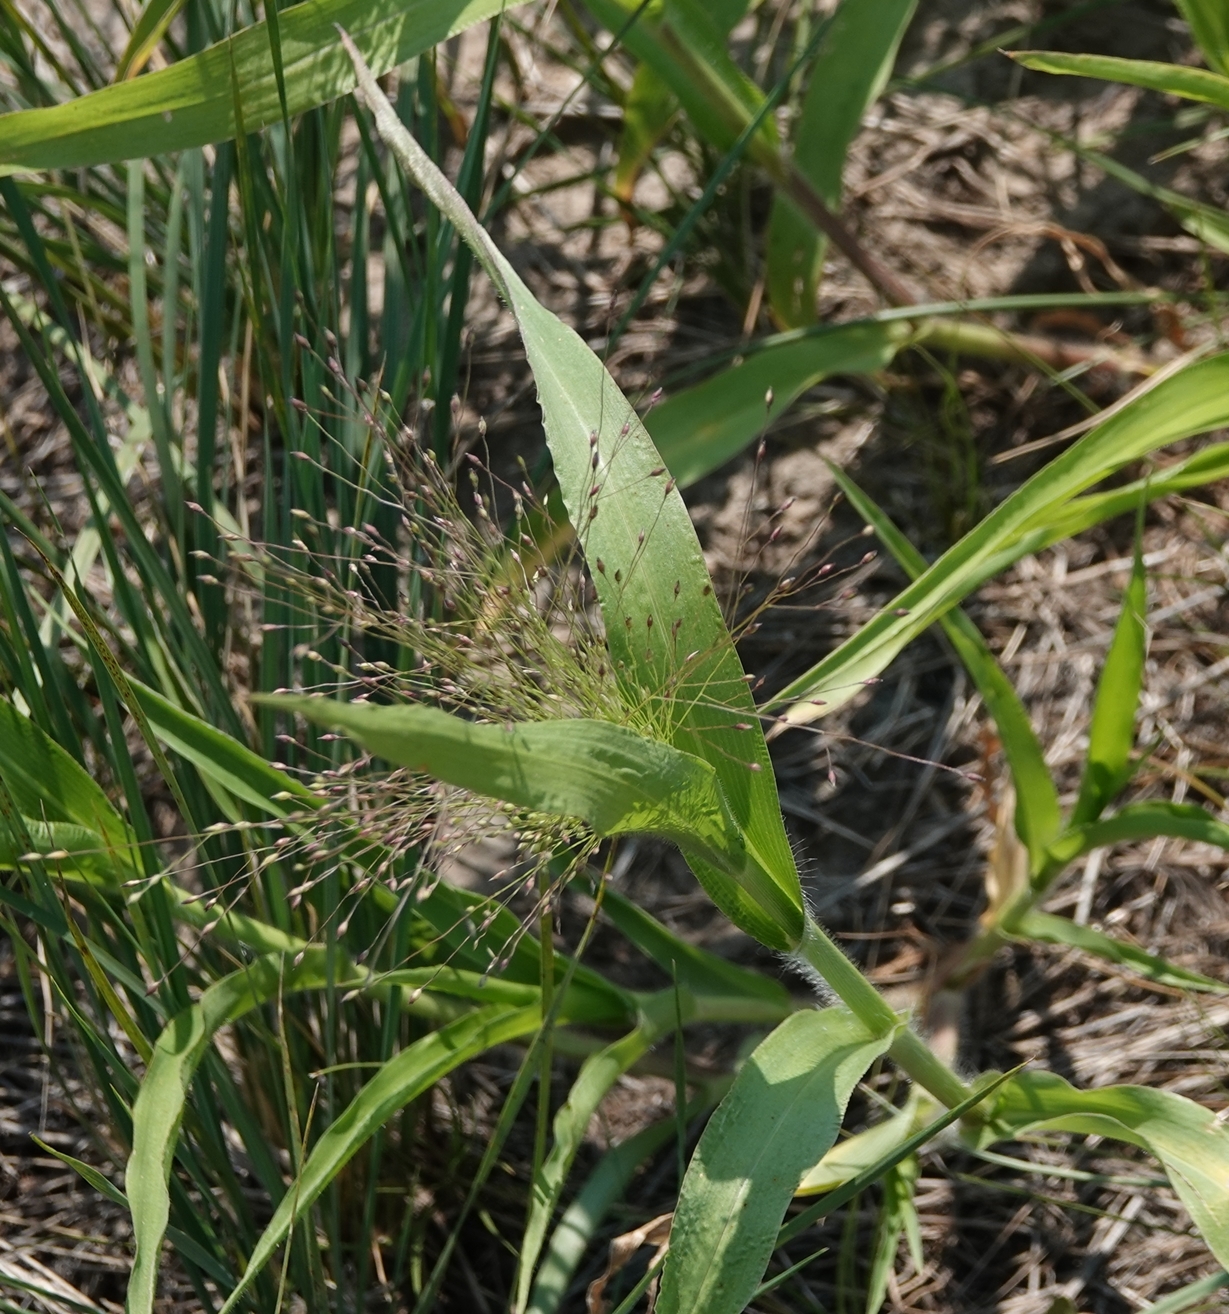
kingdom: Plantae
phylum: Tracheophyta
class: Liliopsida
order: Poales
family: Poaceae
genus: Panicum
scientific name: Panicum capillare
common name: Witch-grass
